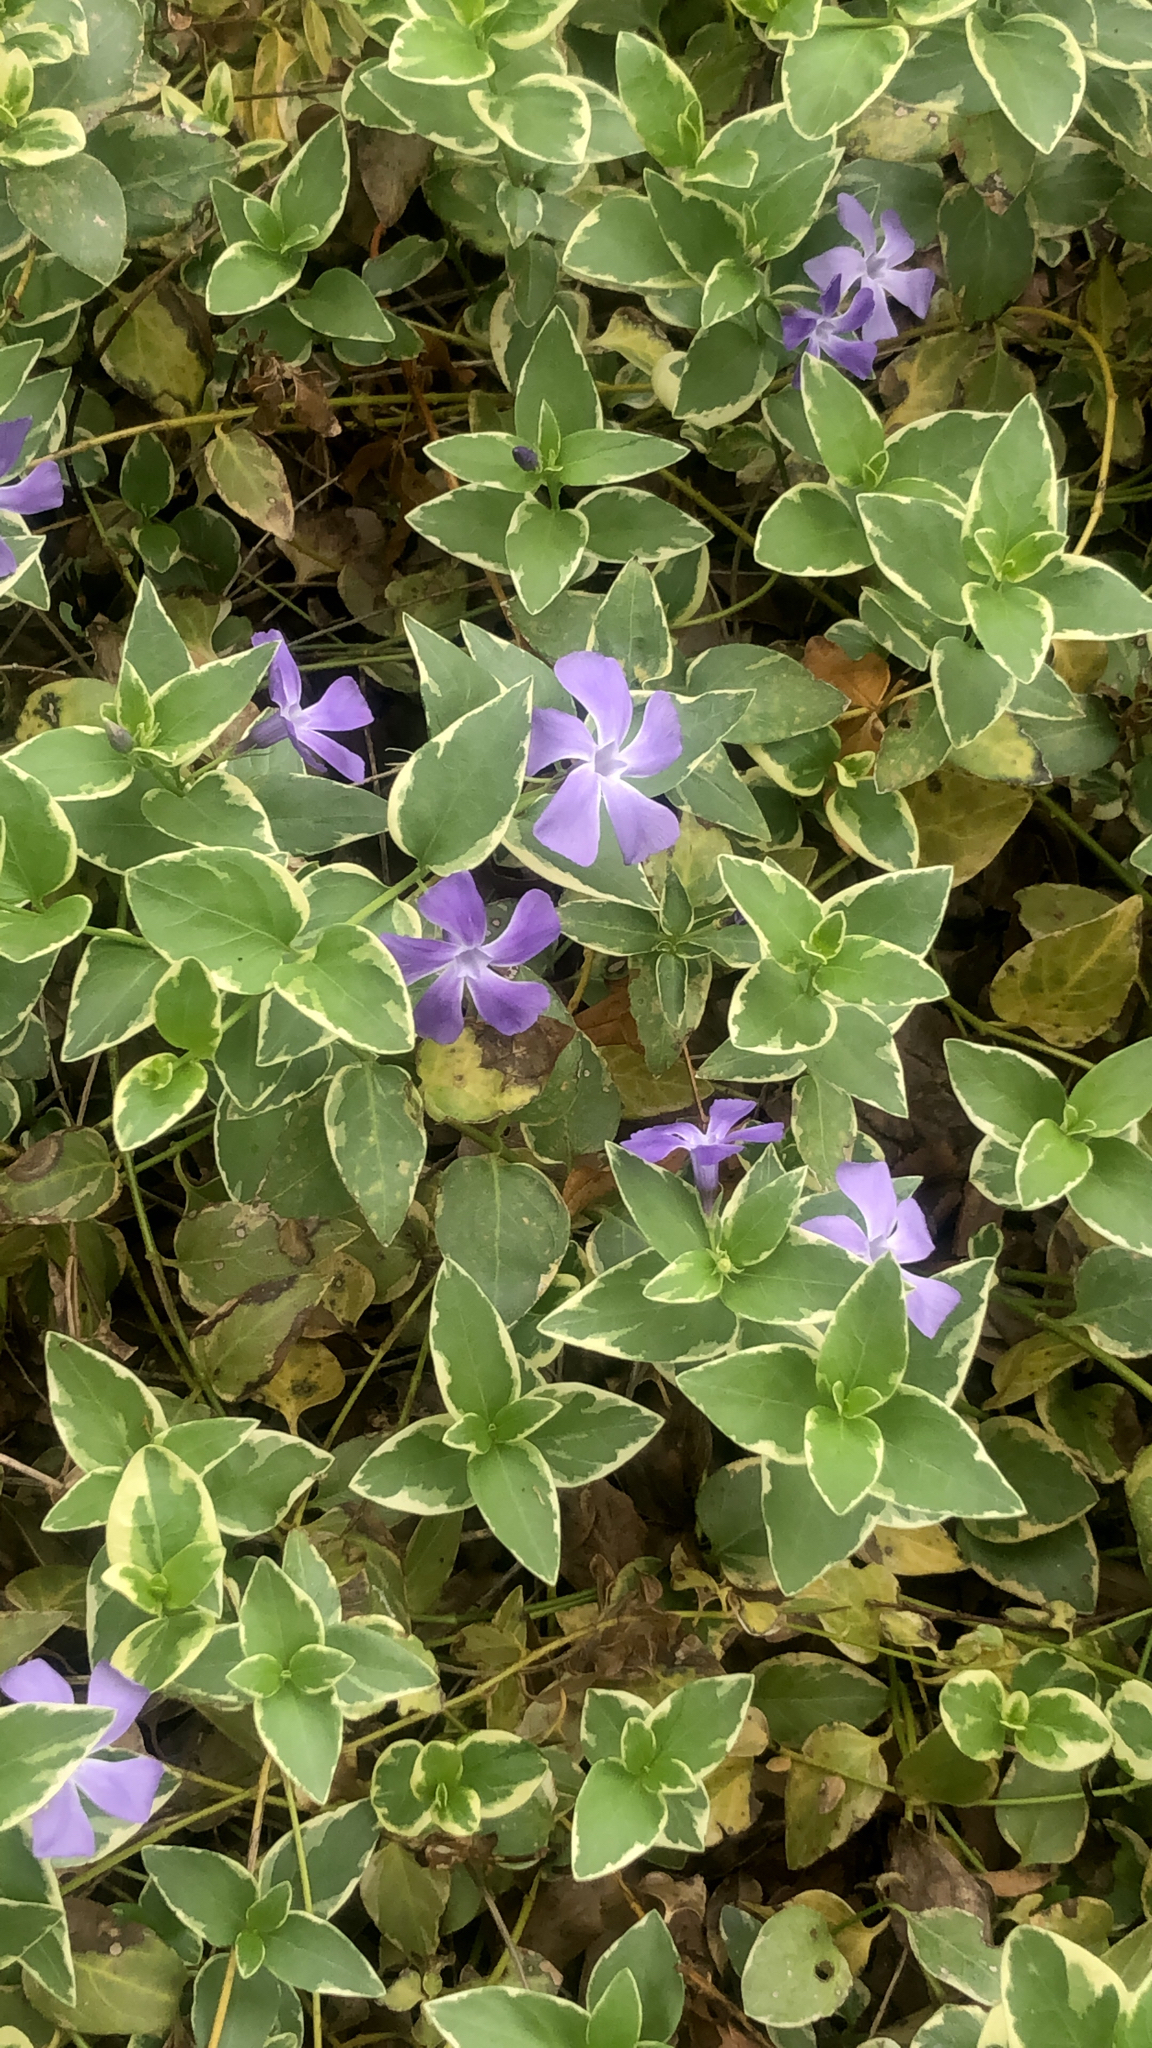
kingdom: Plantae
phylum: Tracheophyta
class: Magnoliopsida
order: Gentianales
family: Apocynaceae
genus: Vinca
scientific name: Vinca major
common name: Greater periwinkle
